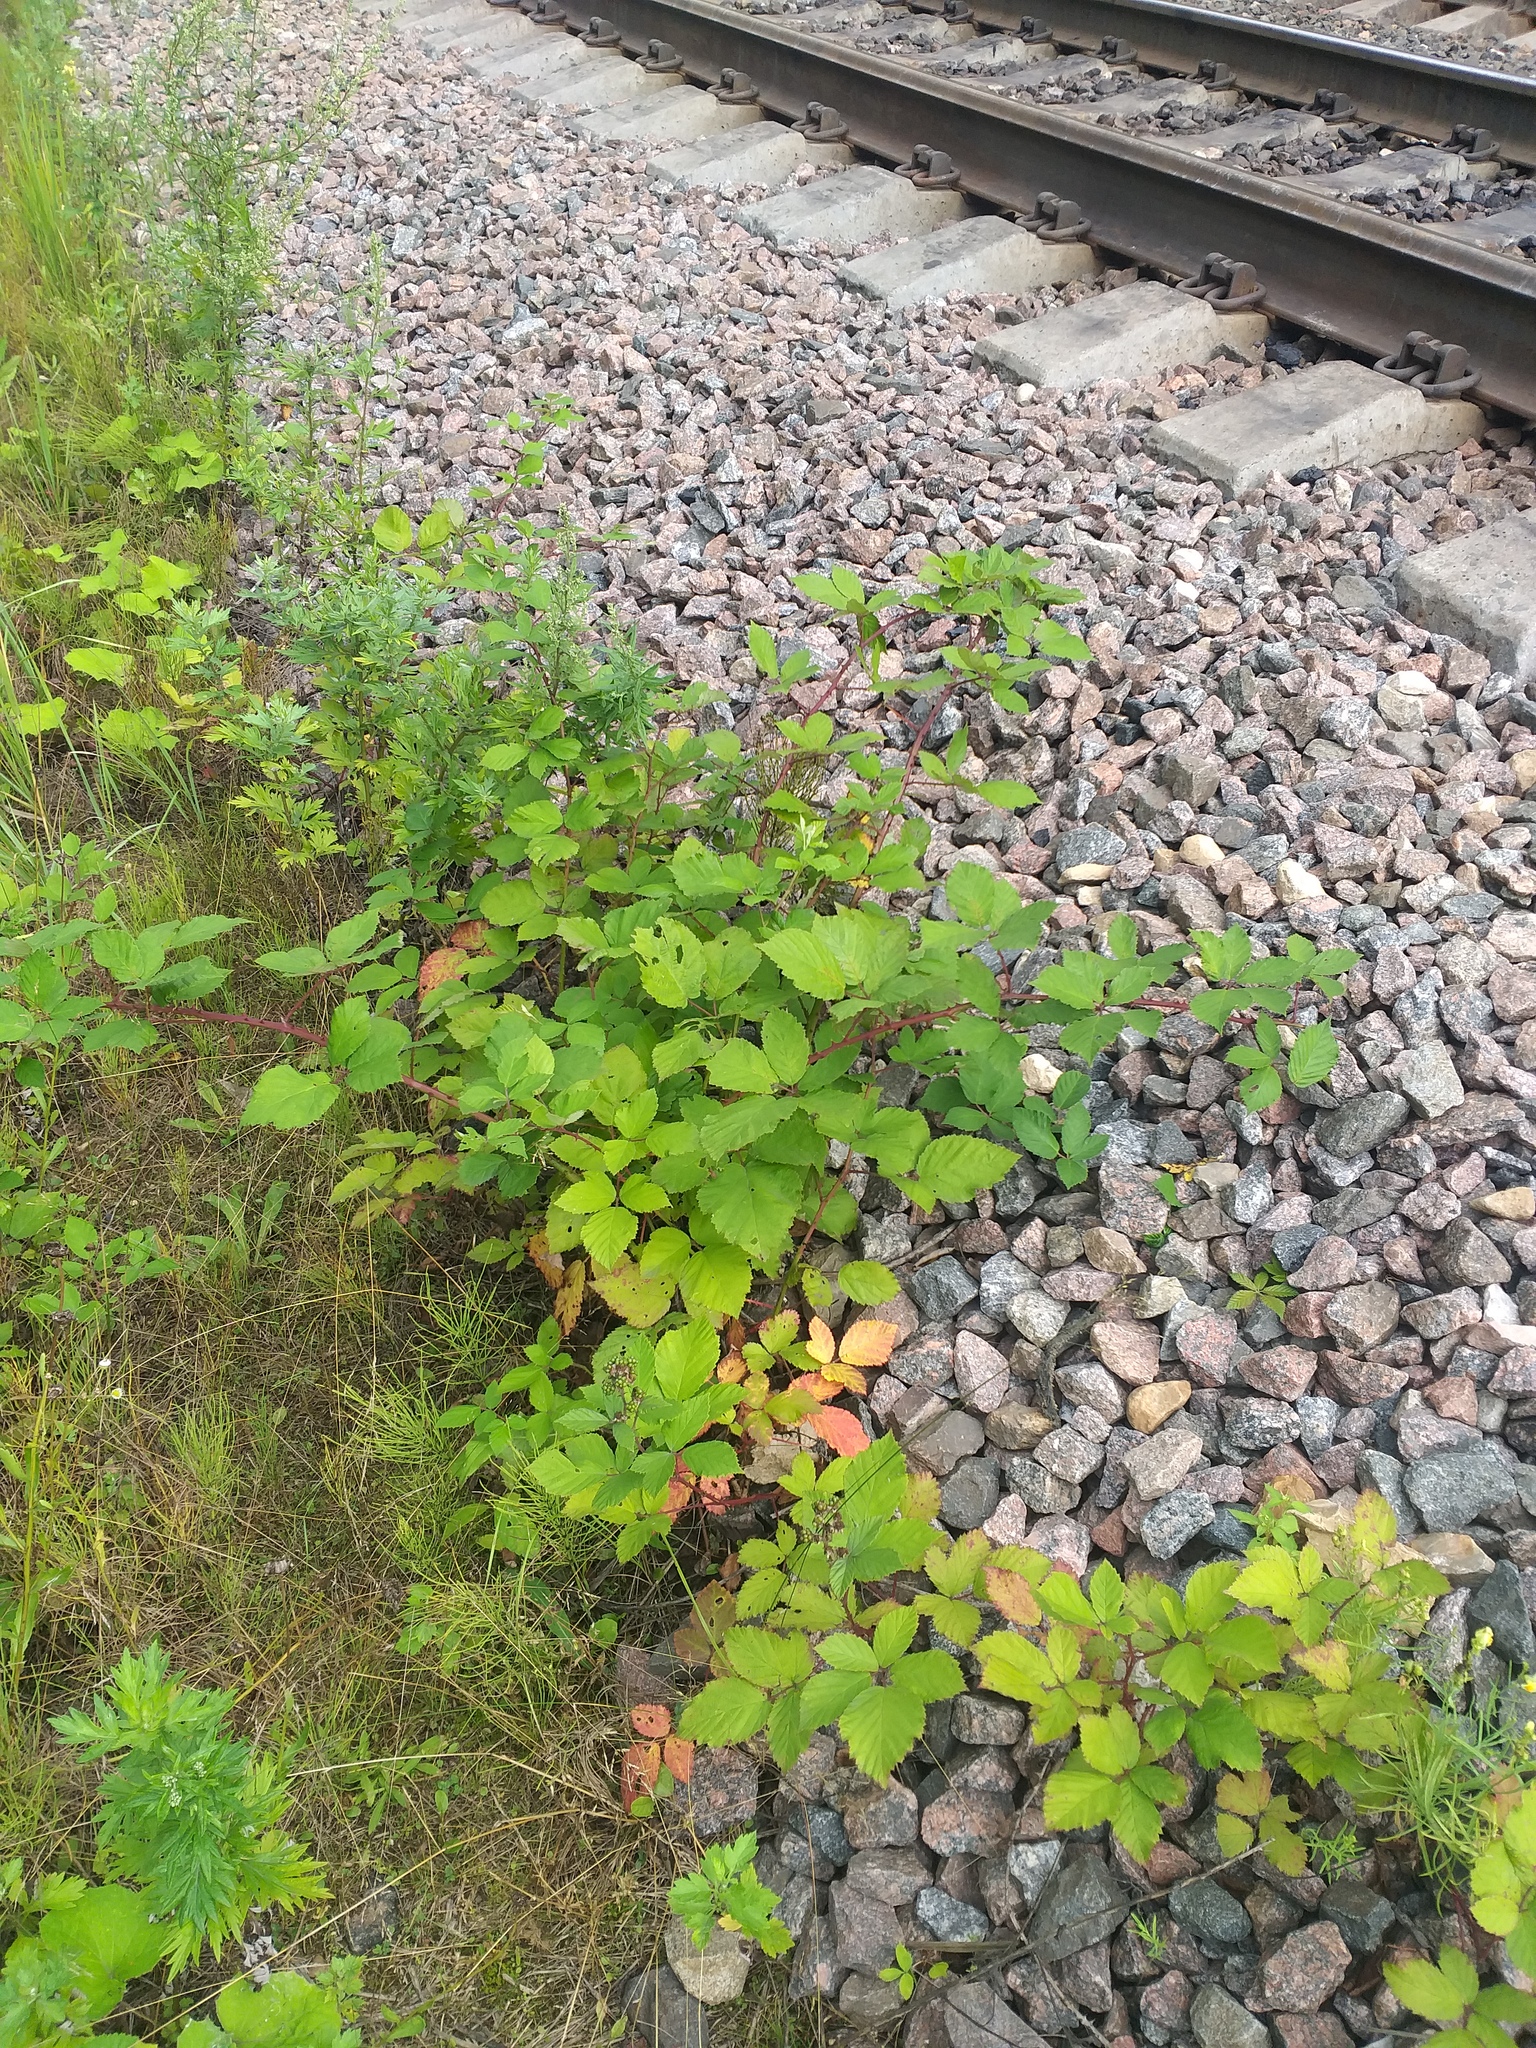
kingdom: Plantae
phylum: Tracheophyta
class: Magnoliopsida
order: Rosales
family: Rosaceae
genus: Rubus
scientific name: Rubus procerus
